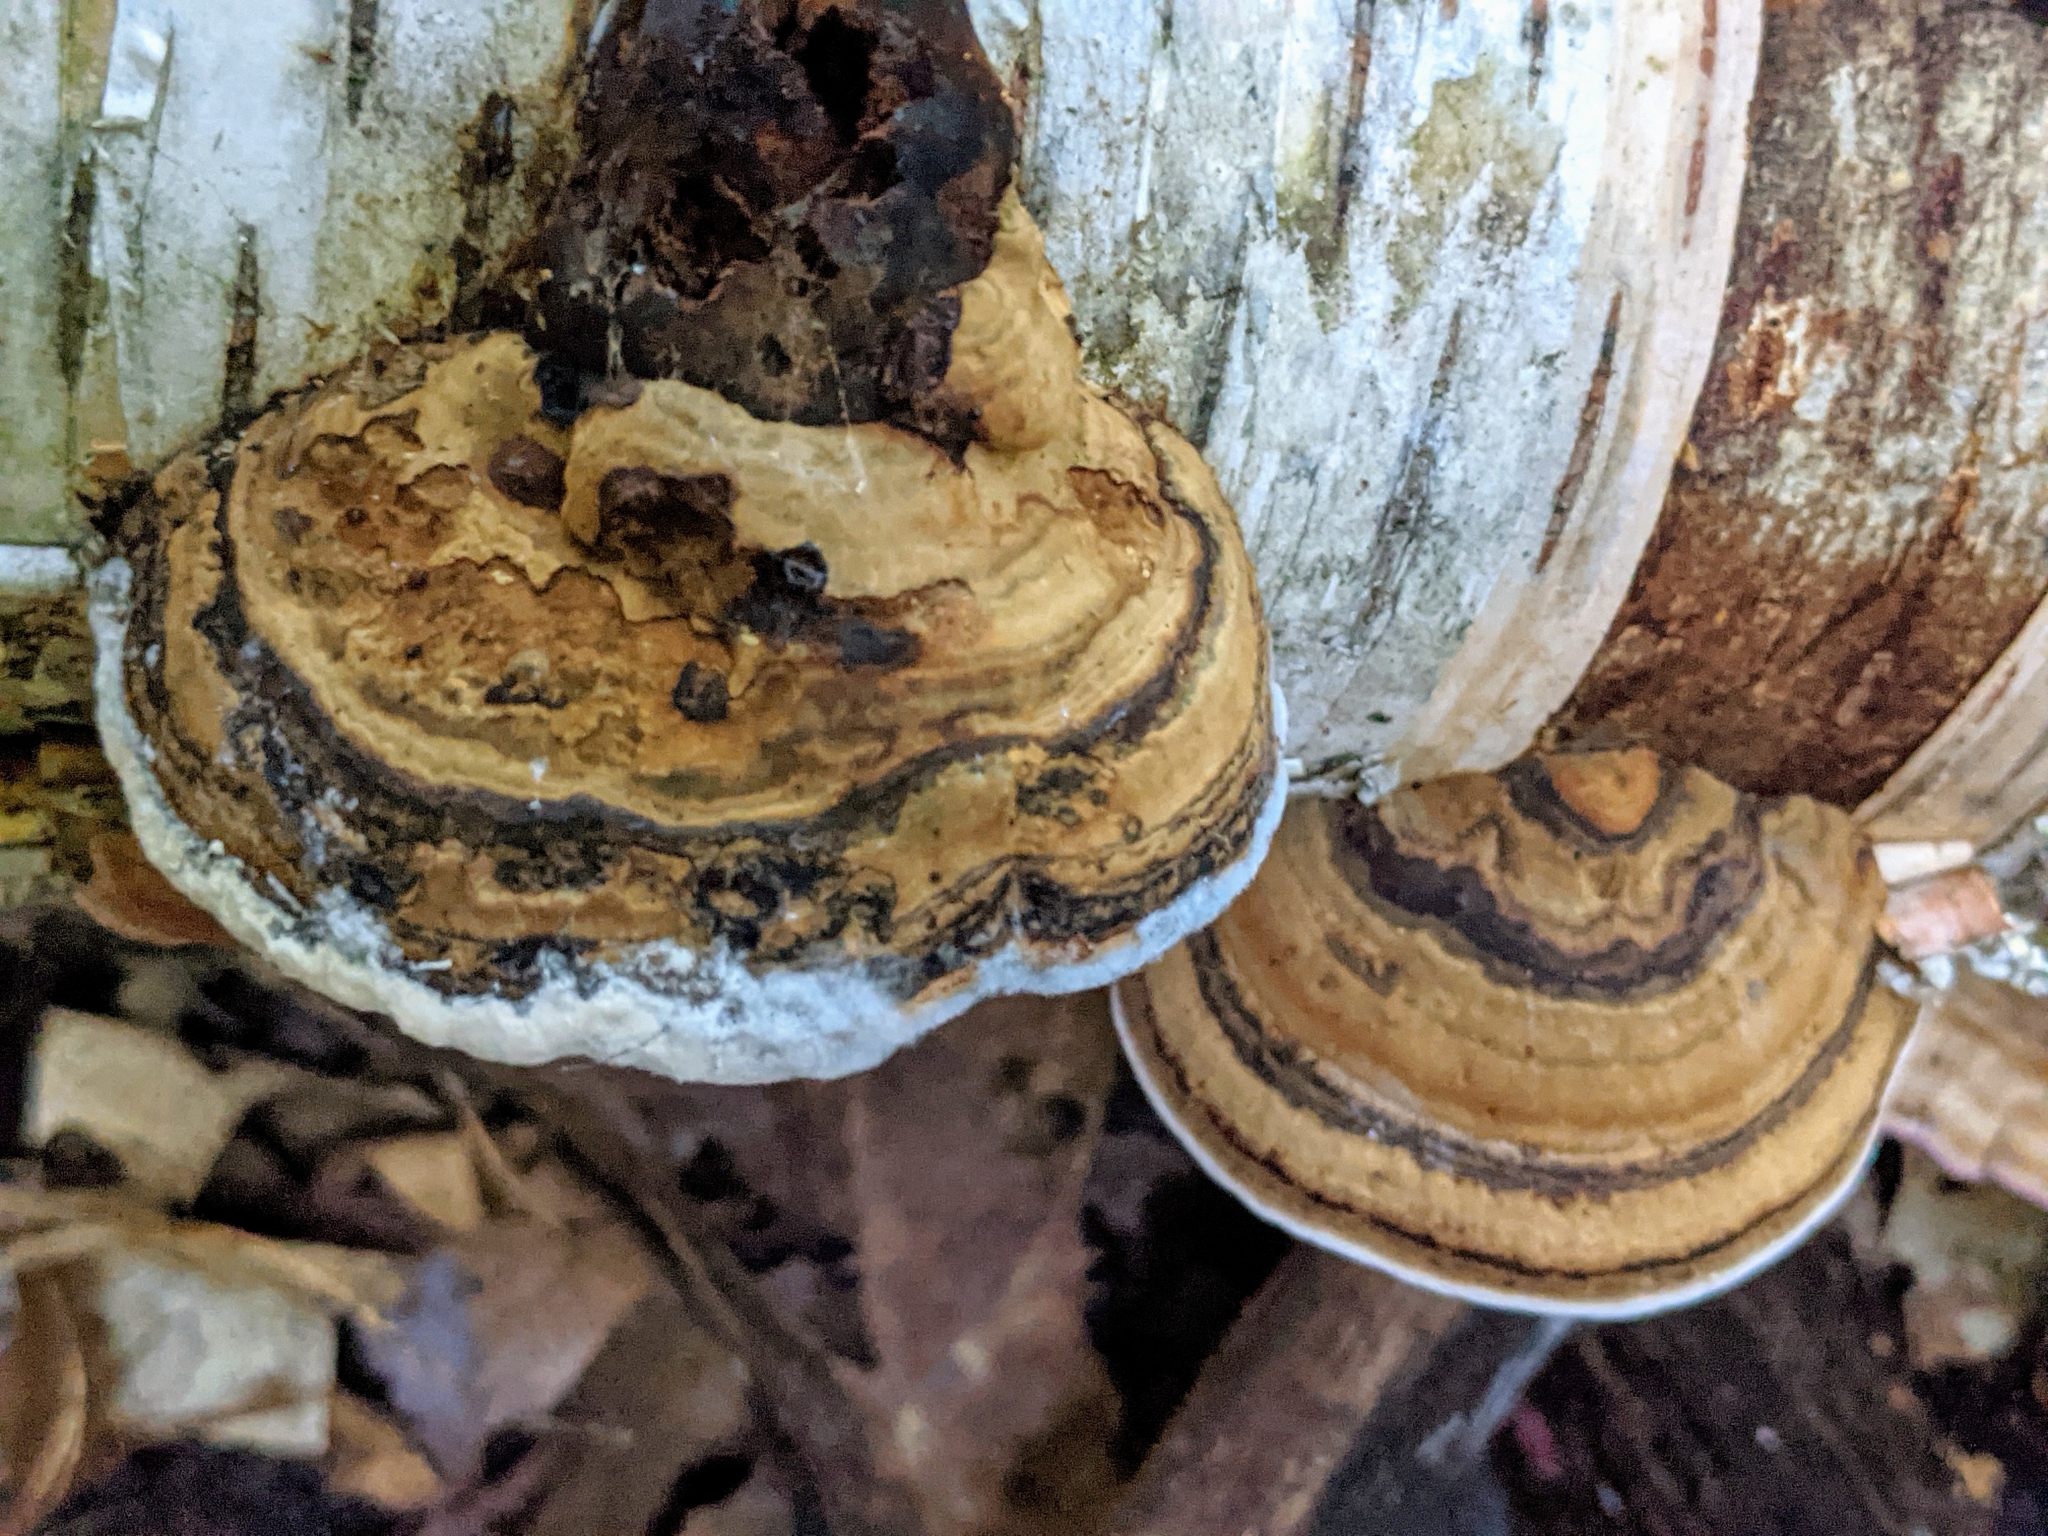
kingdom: Fungi
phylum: Basidiomycota
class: Agaricomycetes
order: Polyporales
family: Polyporaceae
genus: Ganoderma
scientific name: Ganoderma applanatum
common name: Artist's bracket
